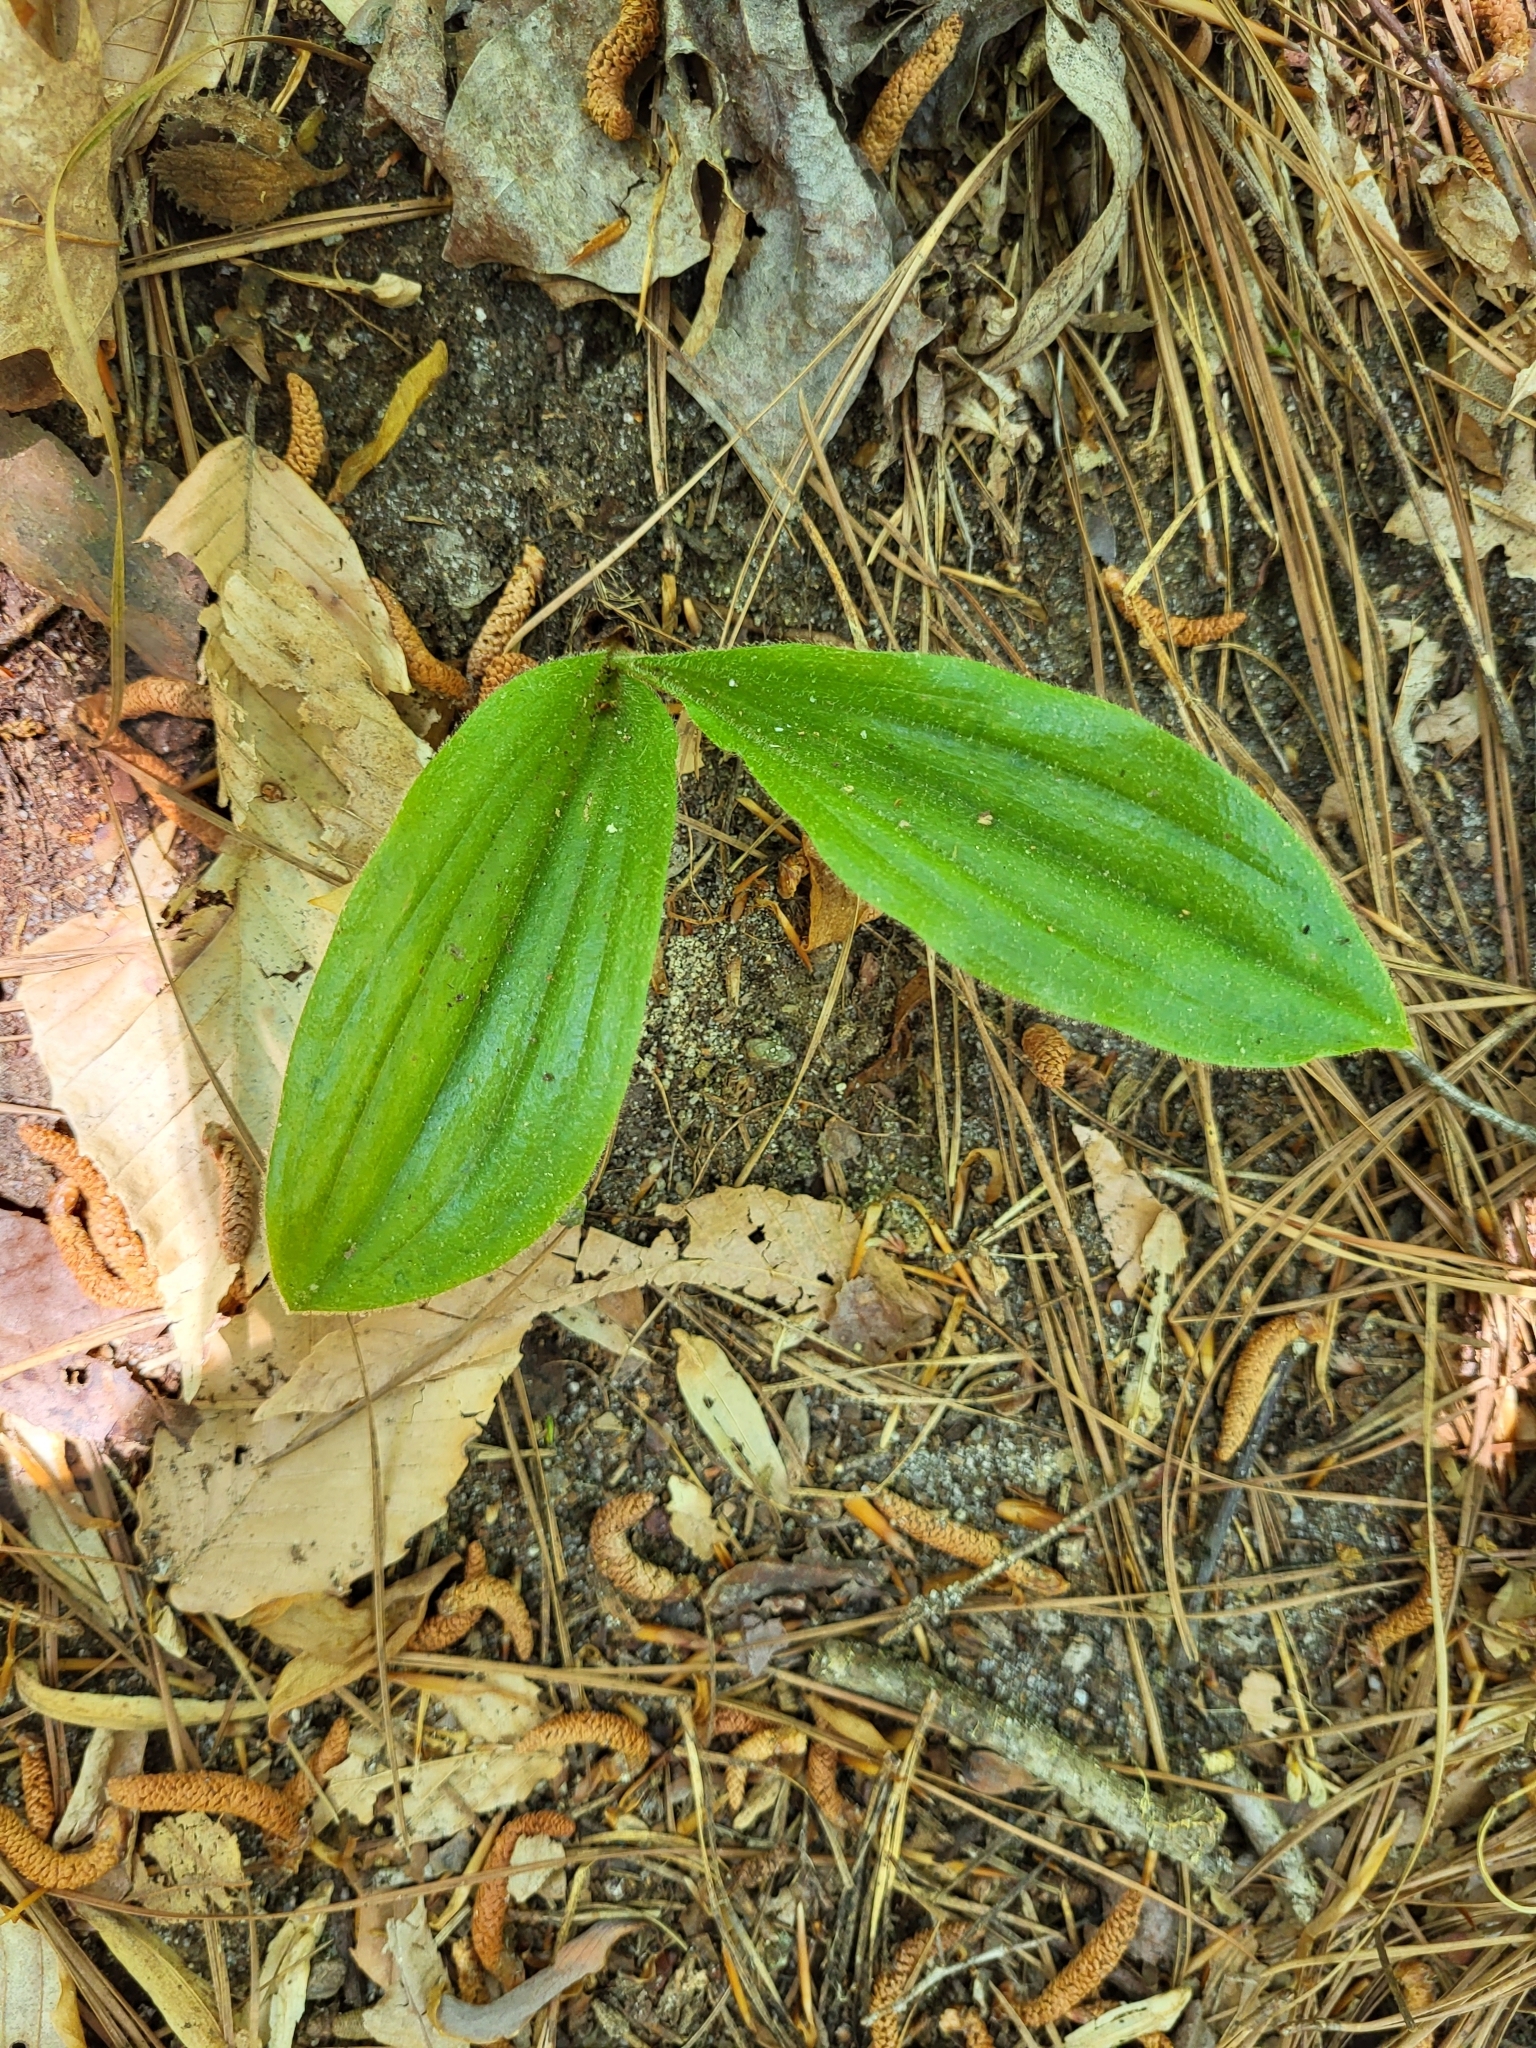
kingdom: Plantae
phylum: Tracheophyta
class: Liliopsida
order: Asparagales
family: Orchidaceae
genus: Cypripedium
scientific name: Cypripedium acaule
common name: Pink lady's-slipper
